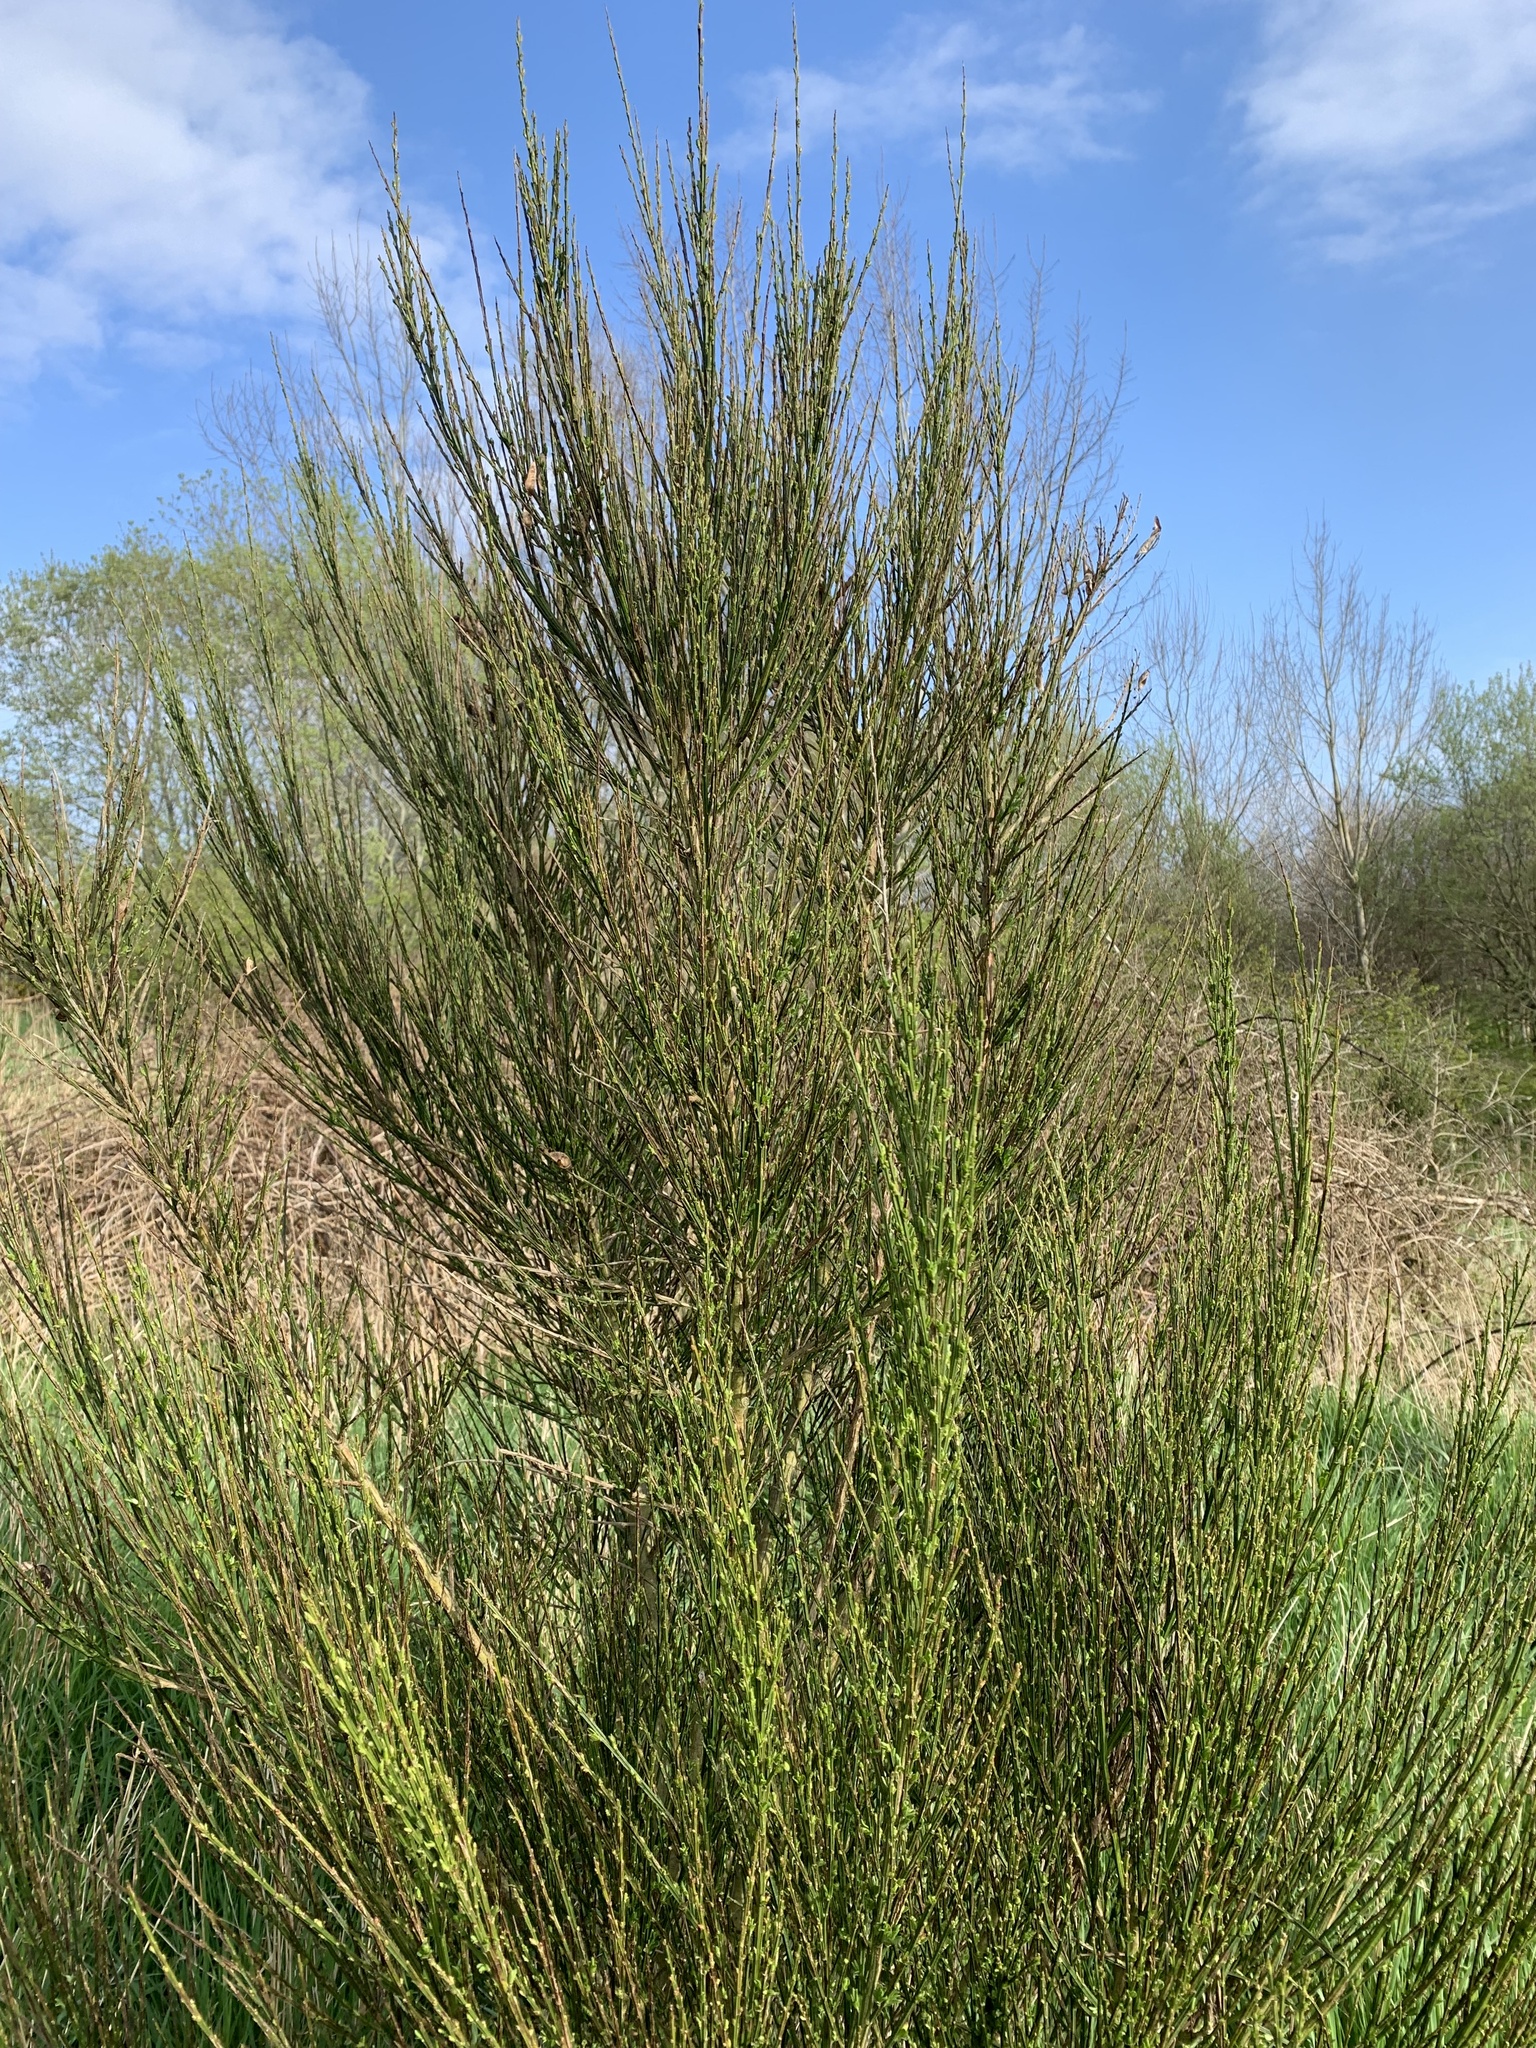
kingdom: Plantae
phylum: Tracheophyta
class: Magnoliopsida
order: Fabales
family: Fabaceae
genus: Cytisus
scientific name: Cytisus scoparius
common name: Scotch broom
